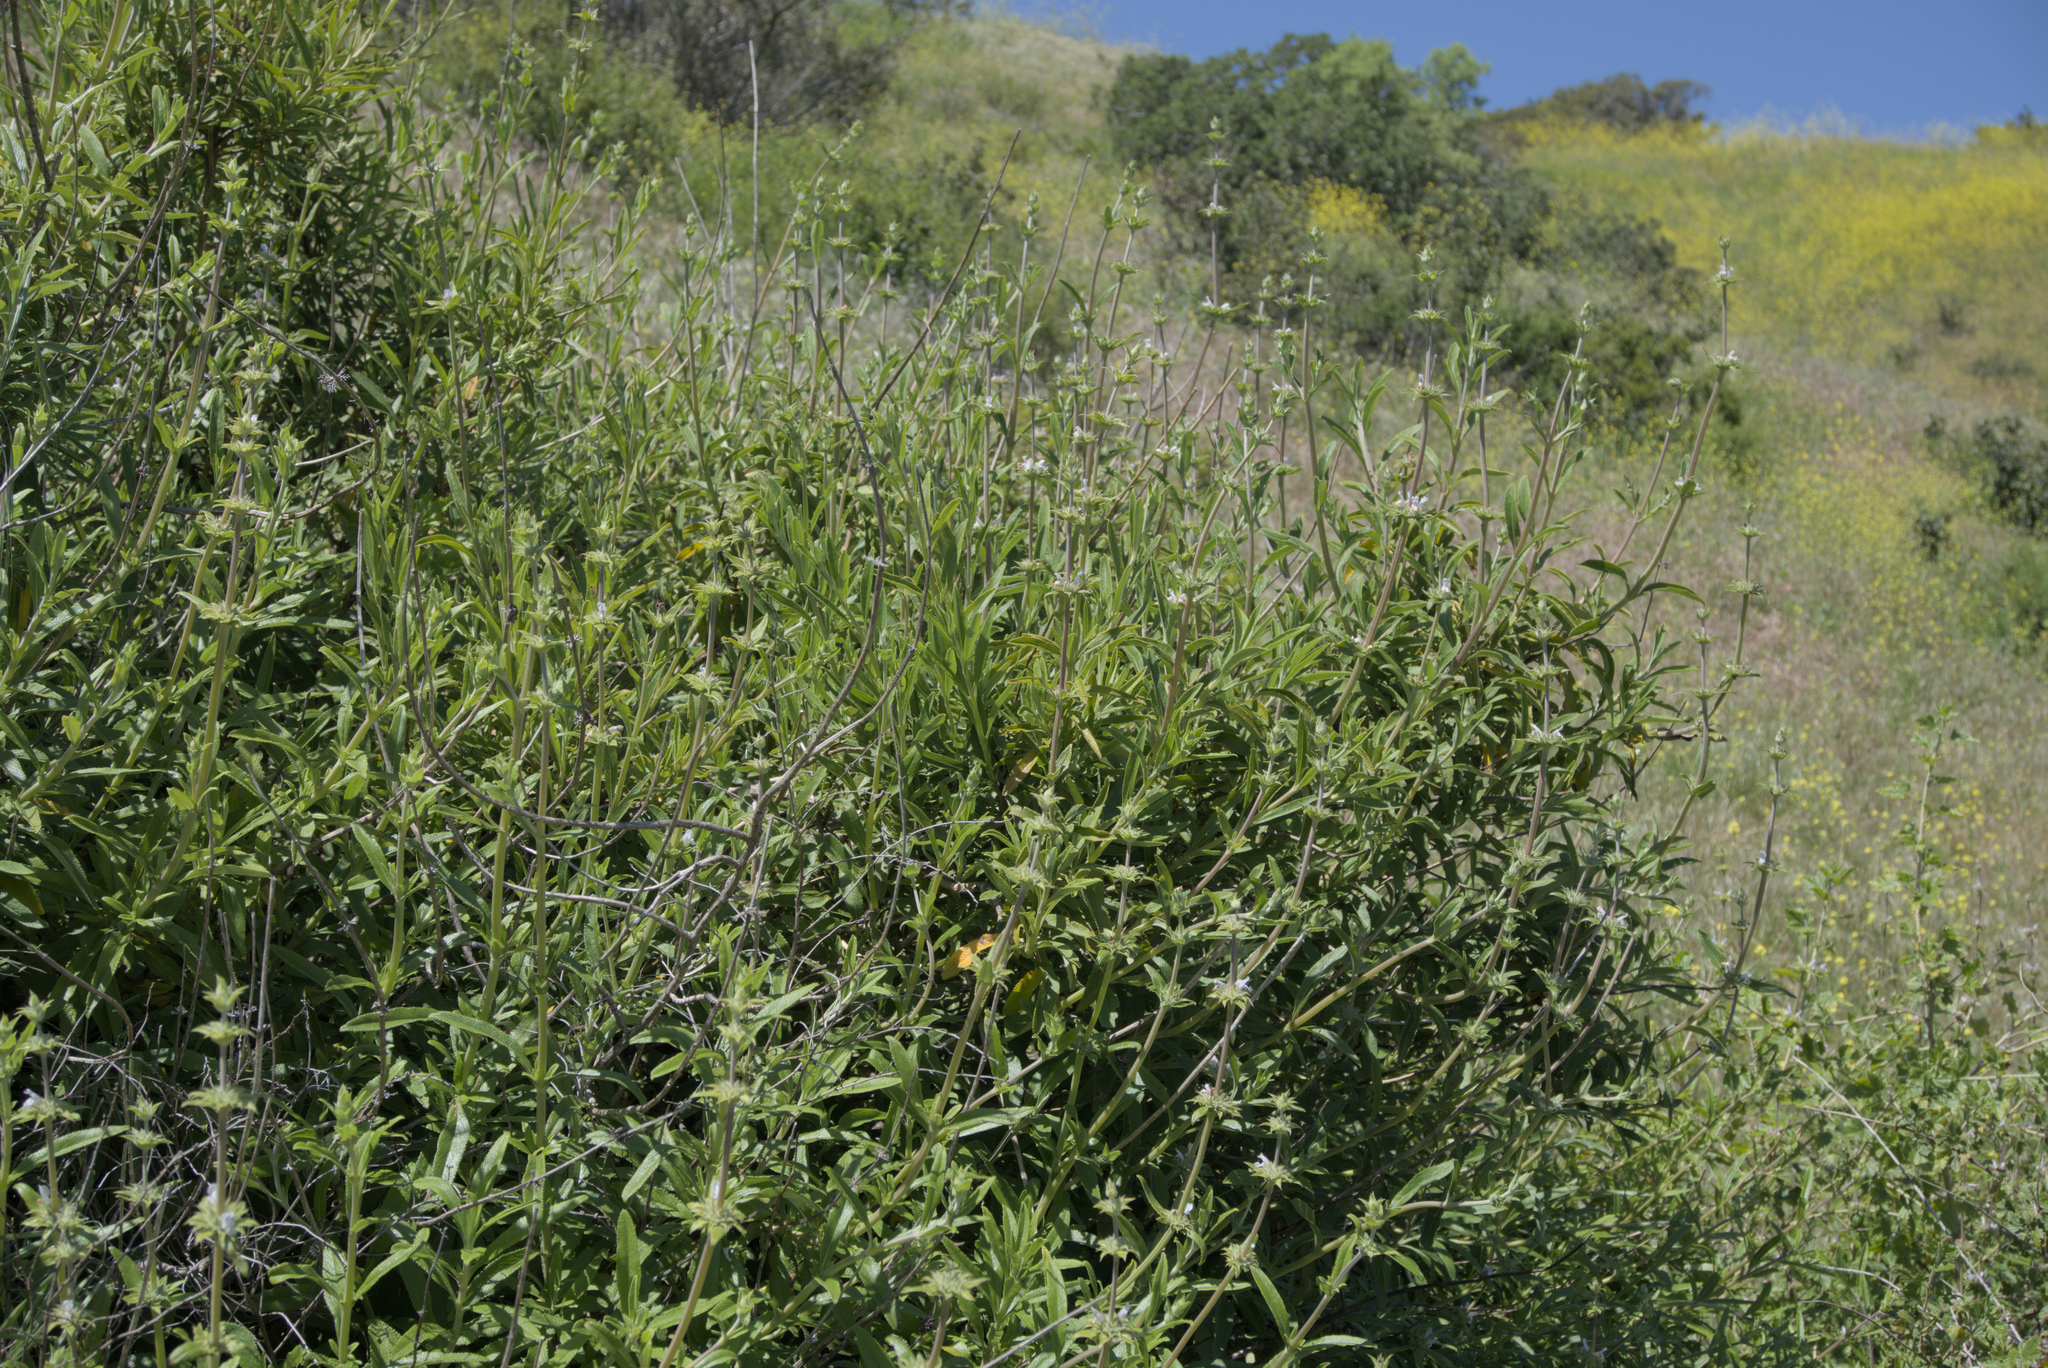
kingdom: Plantae
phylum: Tracheophyta
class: Magnoliopsida
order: Lamiales
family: Lamiaceae
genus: Salvia
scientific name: Salvia mellifera
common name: Black sage
